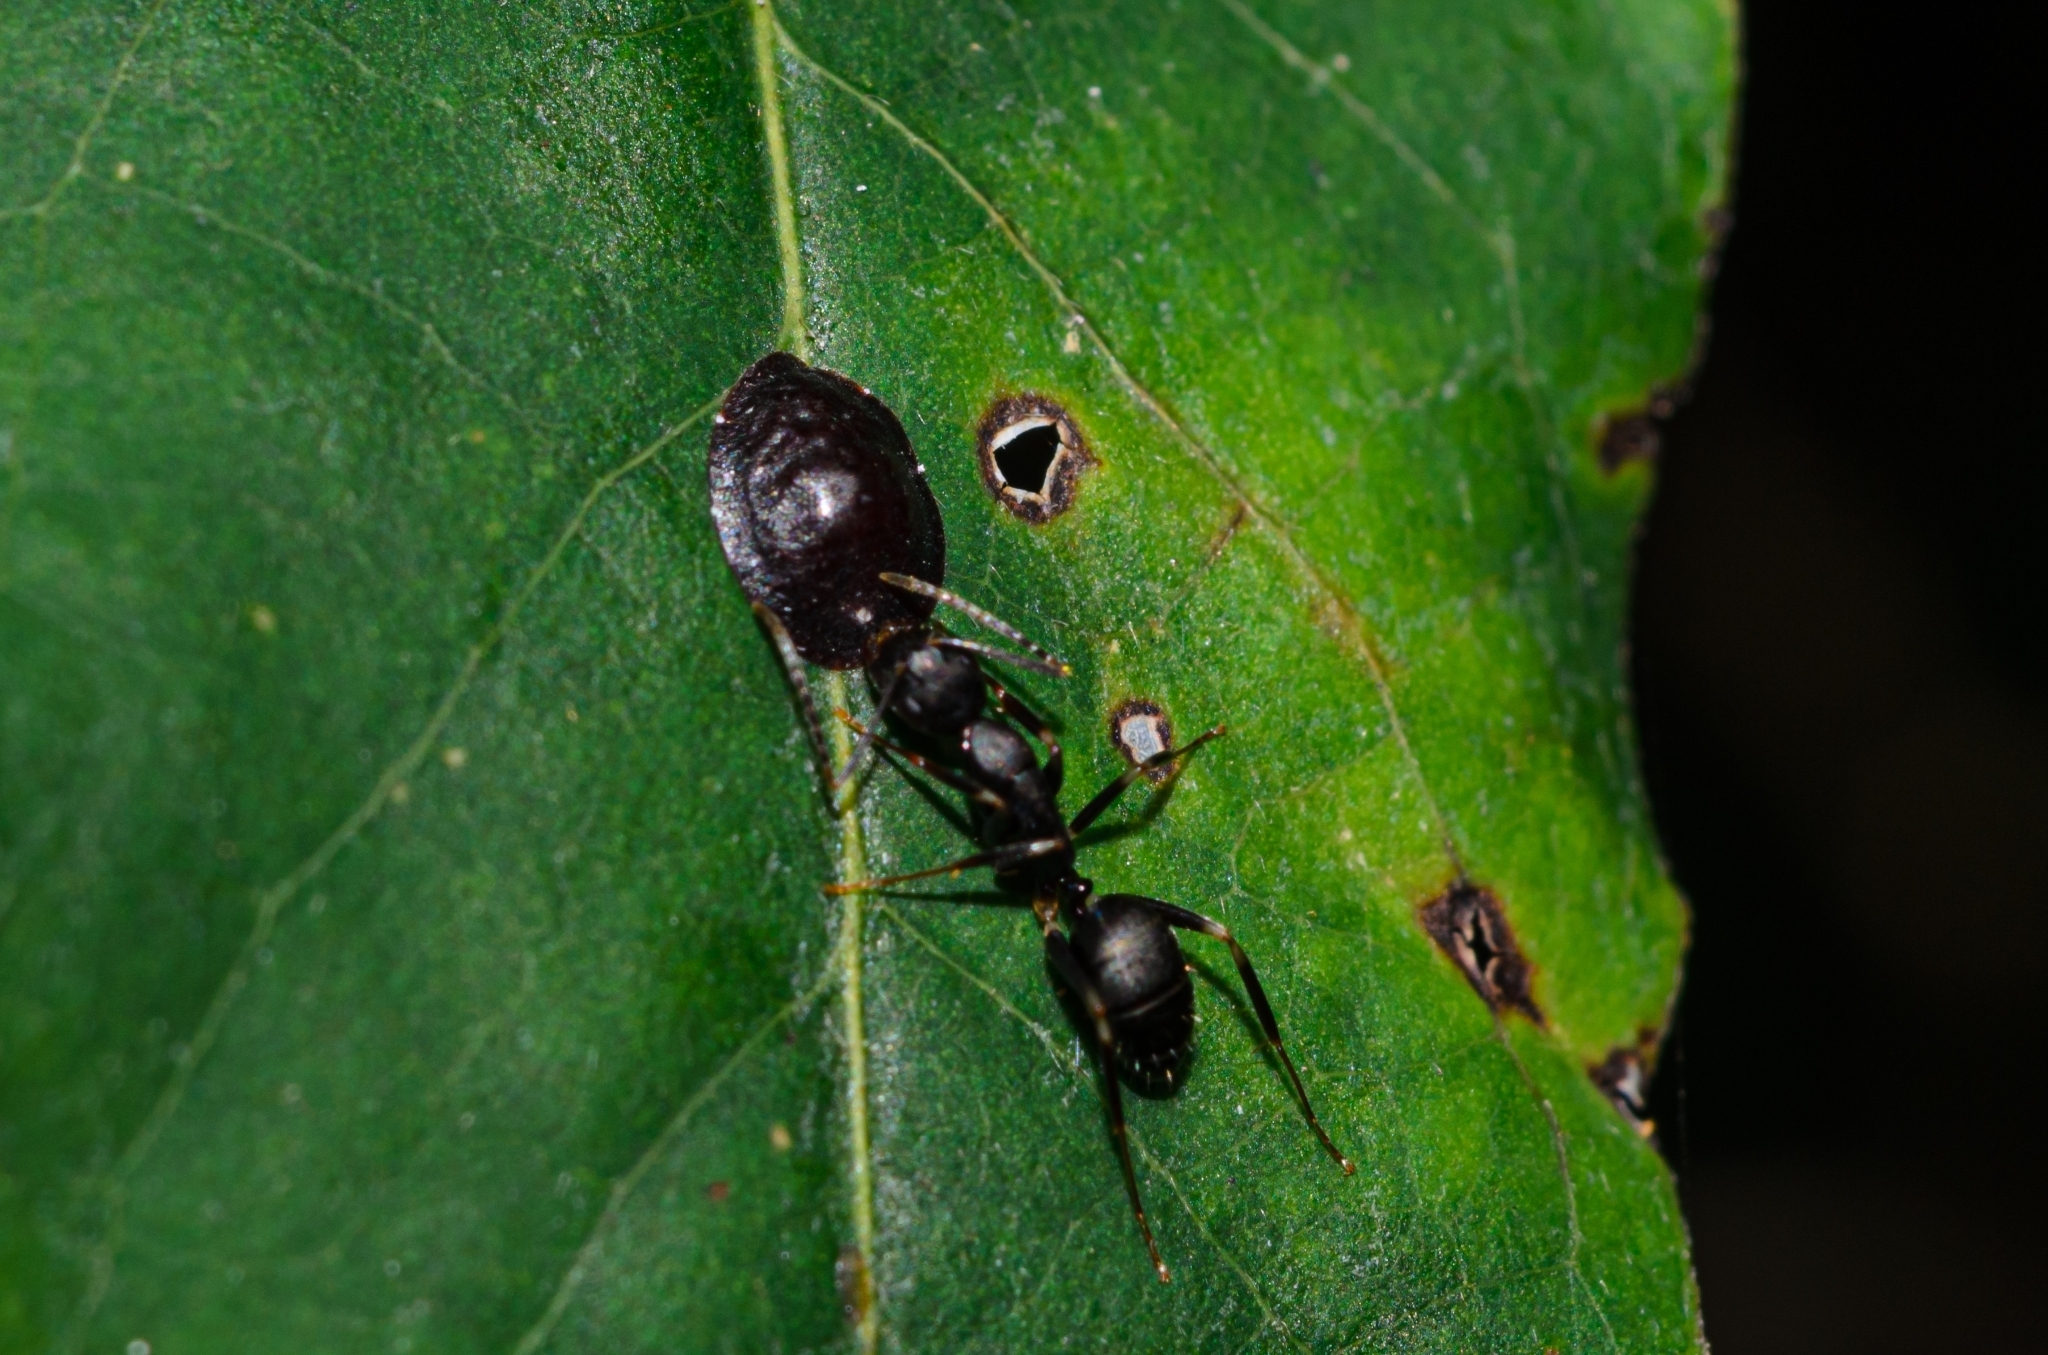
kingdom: Animalia
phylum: Arthropoda
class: Insecta
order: Hymenoptera
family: Formicidae
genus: Camponotus
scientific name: Camponotus alboannulatus
